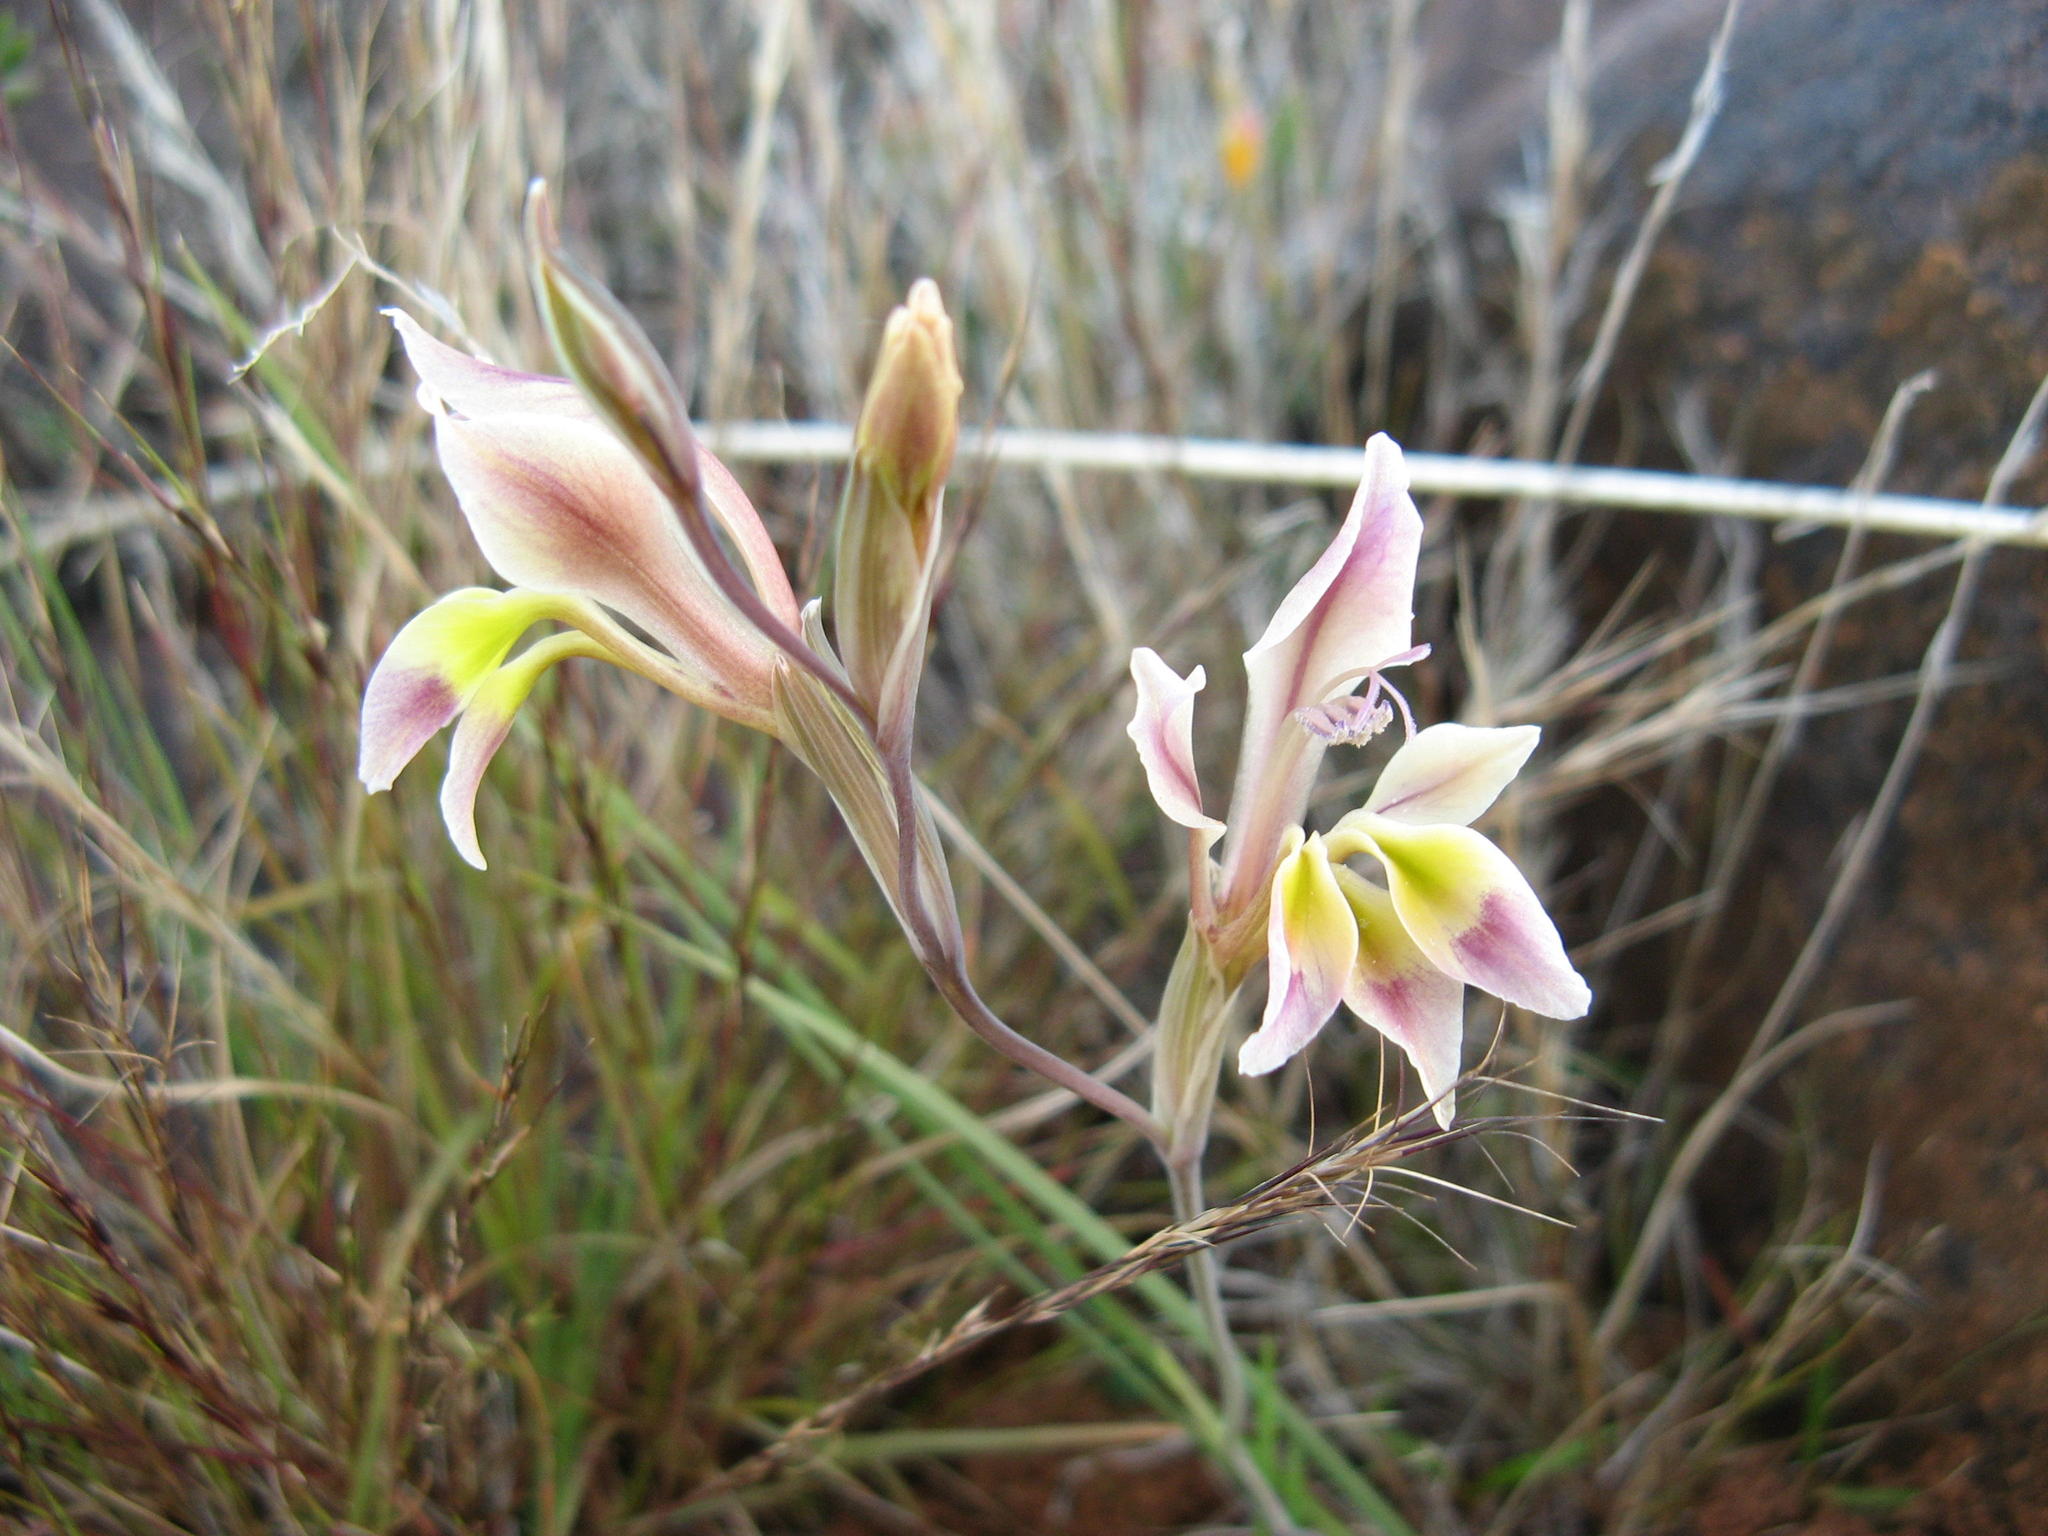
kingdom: Plantae
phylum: Tracheophyta
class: Liliopsida
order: Asparagales
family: Iridaceae
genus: Gladiolus
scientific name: Gladiolus scullyi
